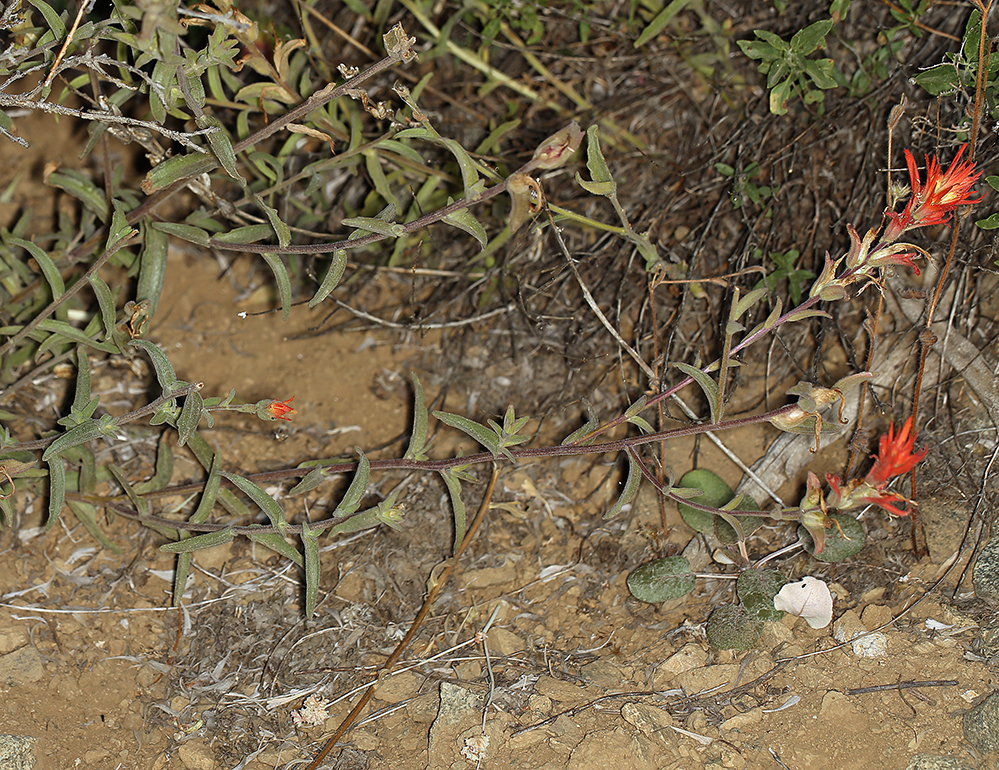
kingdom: Plantae
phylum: Tracheophyta
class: Magnoliopsida
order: Lamiales
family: Orobanchaceae
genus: Castilleja
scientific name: Castilleja pruinosa
